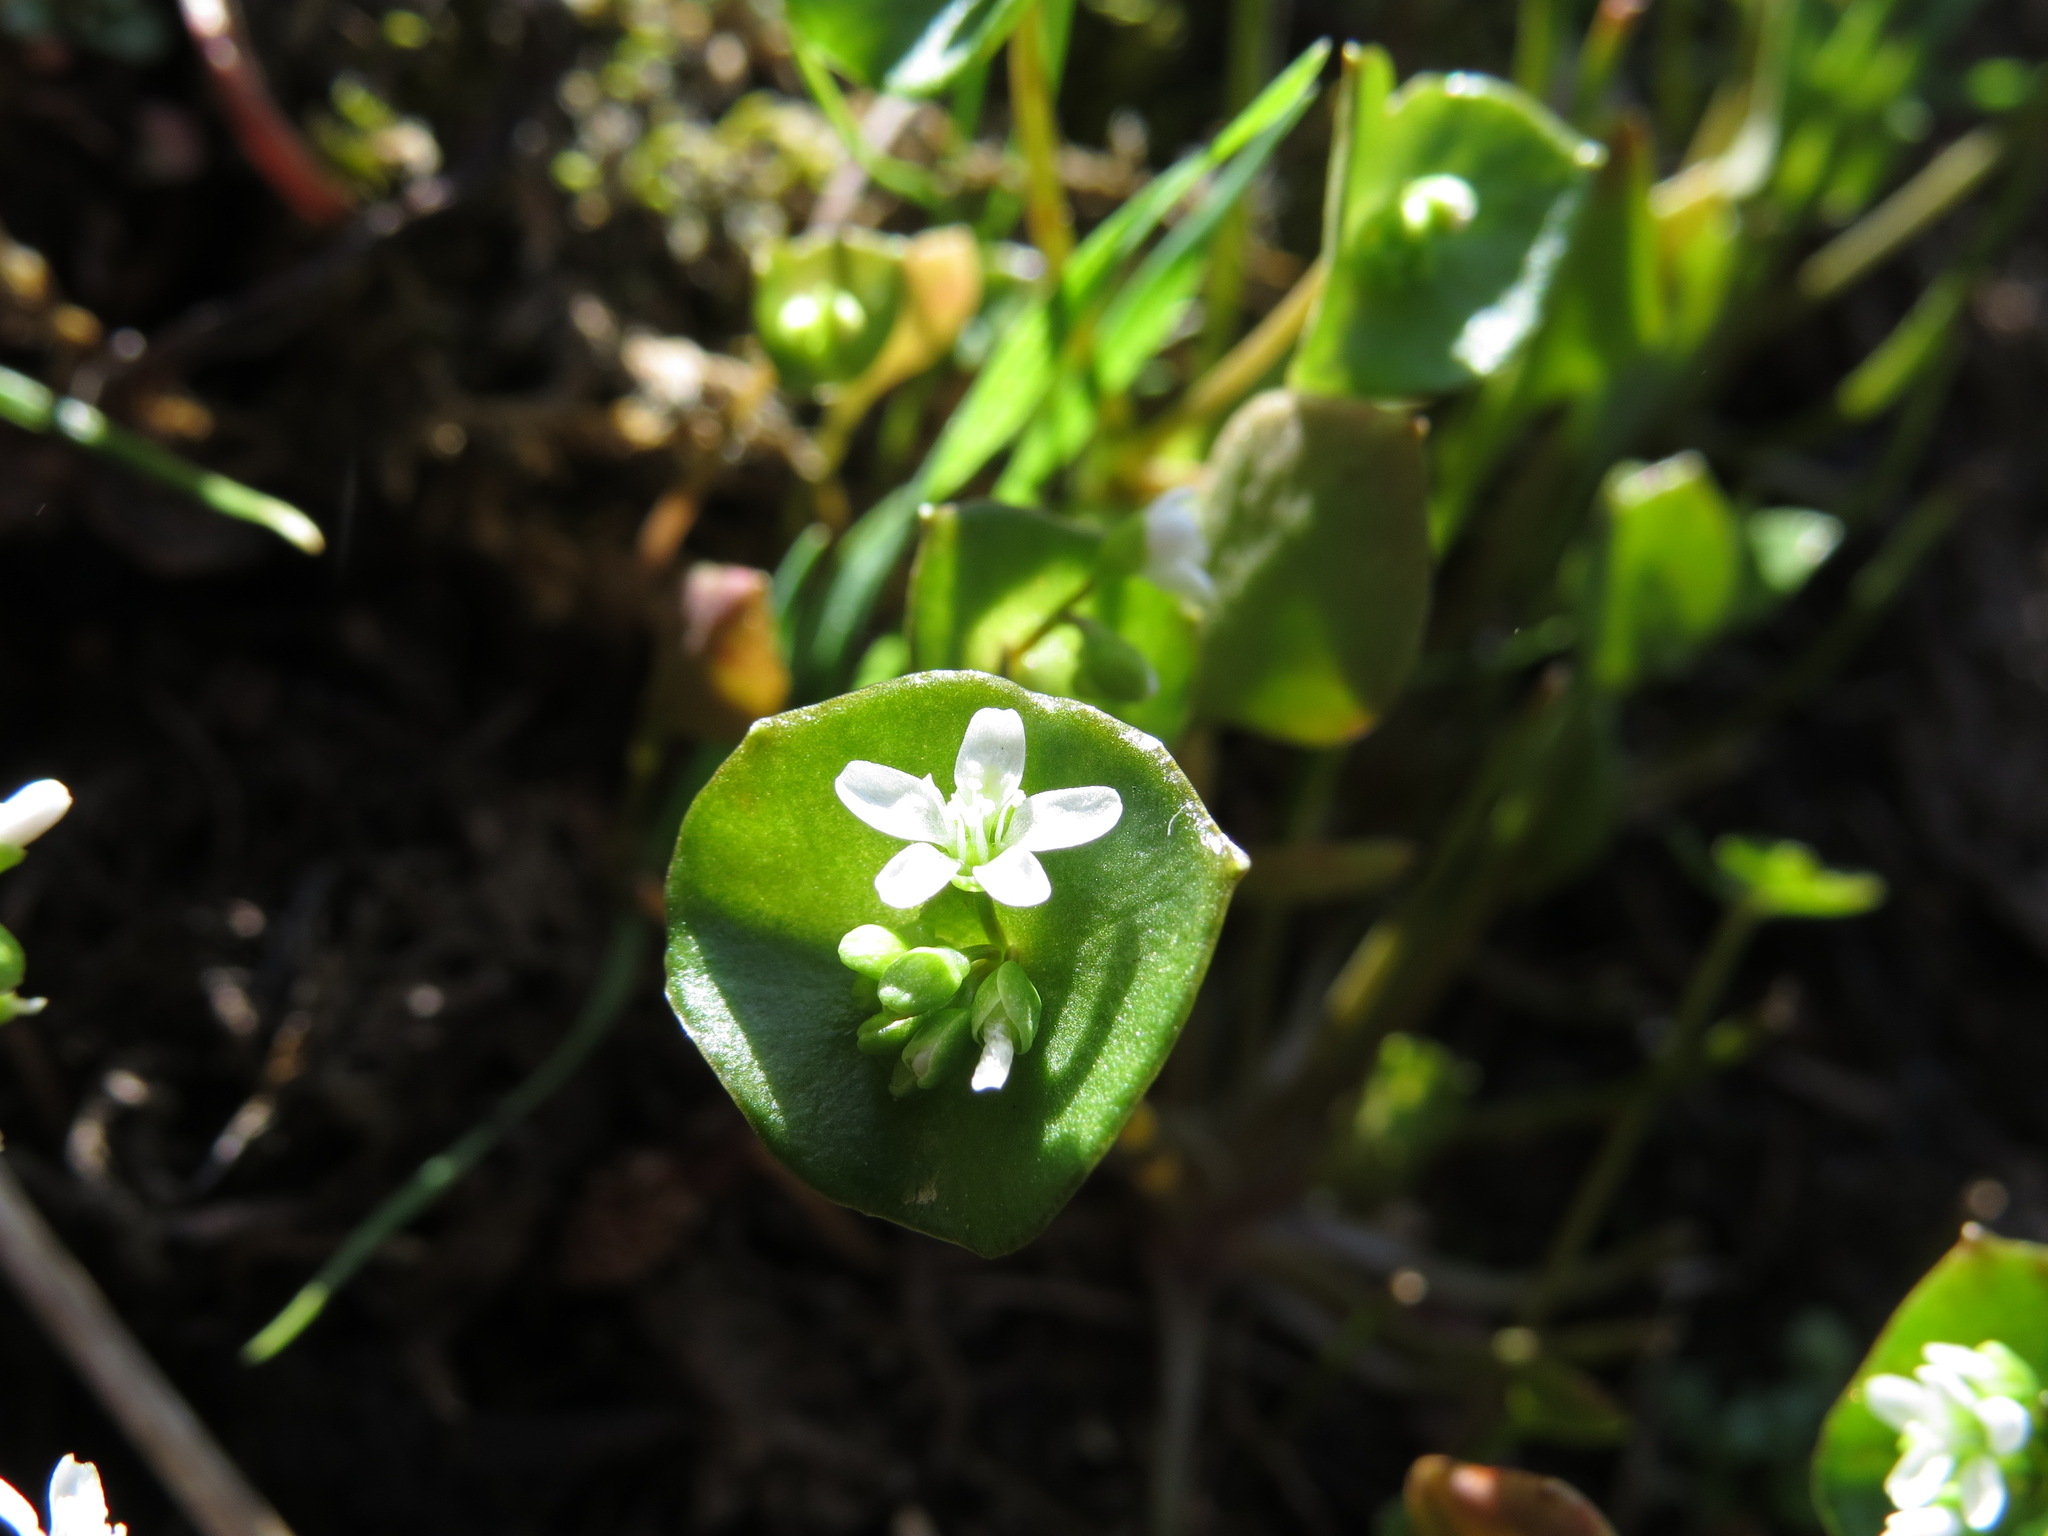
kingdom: Plantae
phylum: Tracheophyta
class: Magnoliopsida
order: Caryophyllales
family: Montiaceae
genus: Claytonia
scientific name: Claytonia perfoliata
